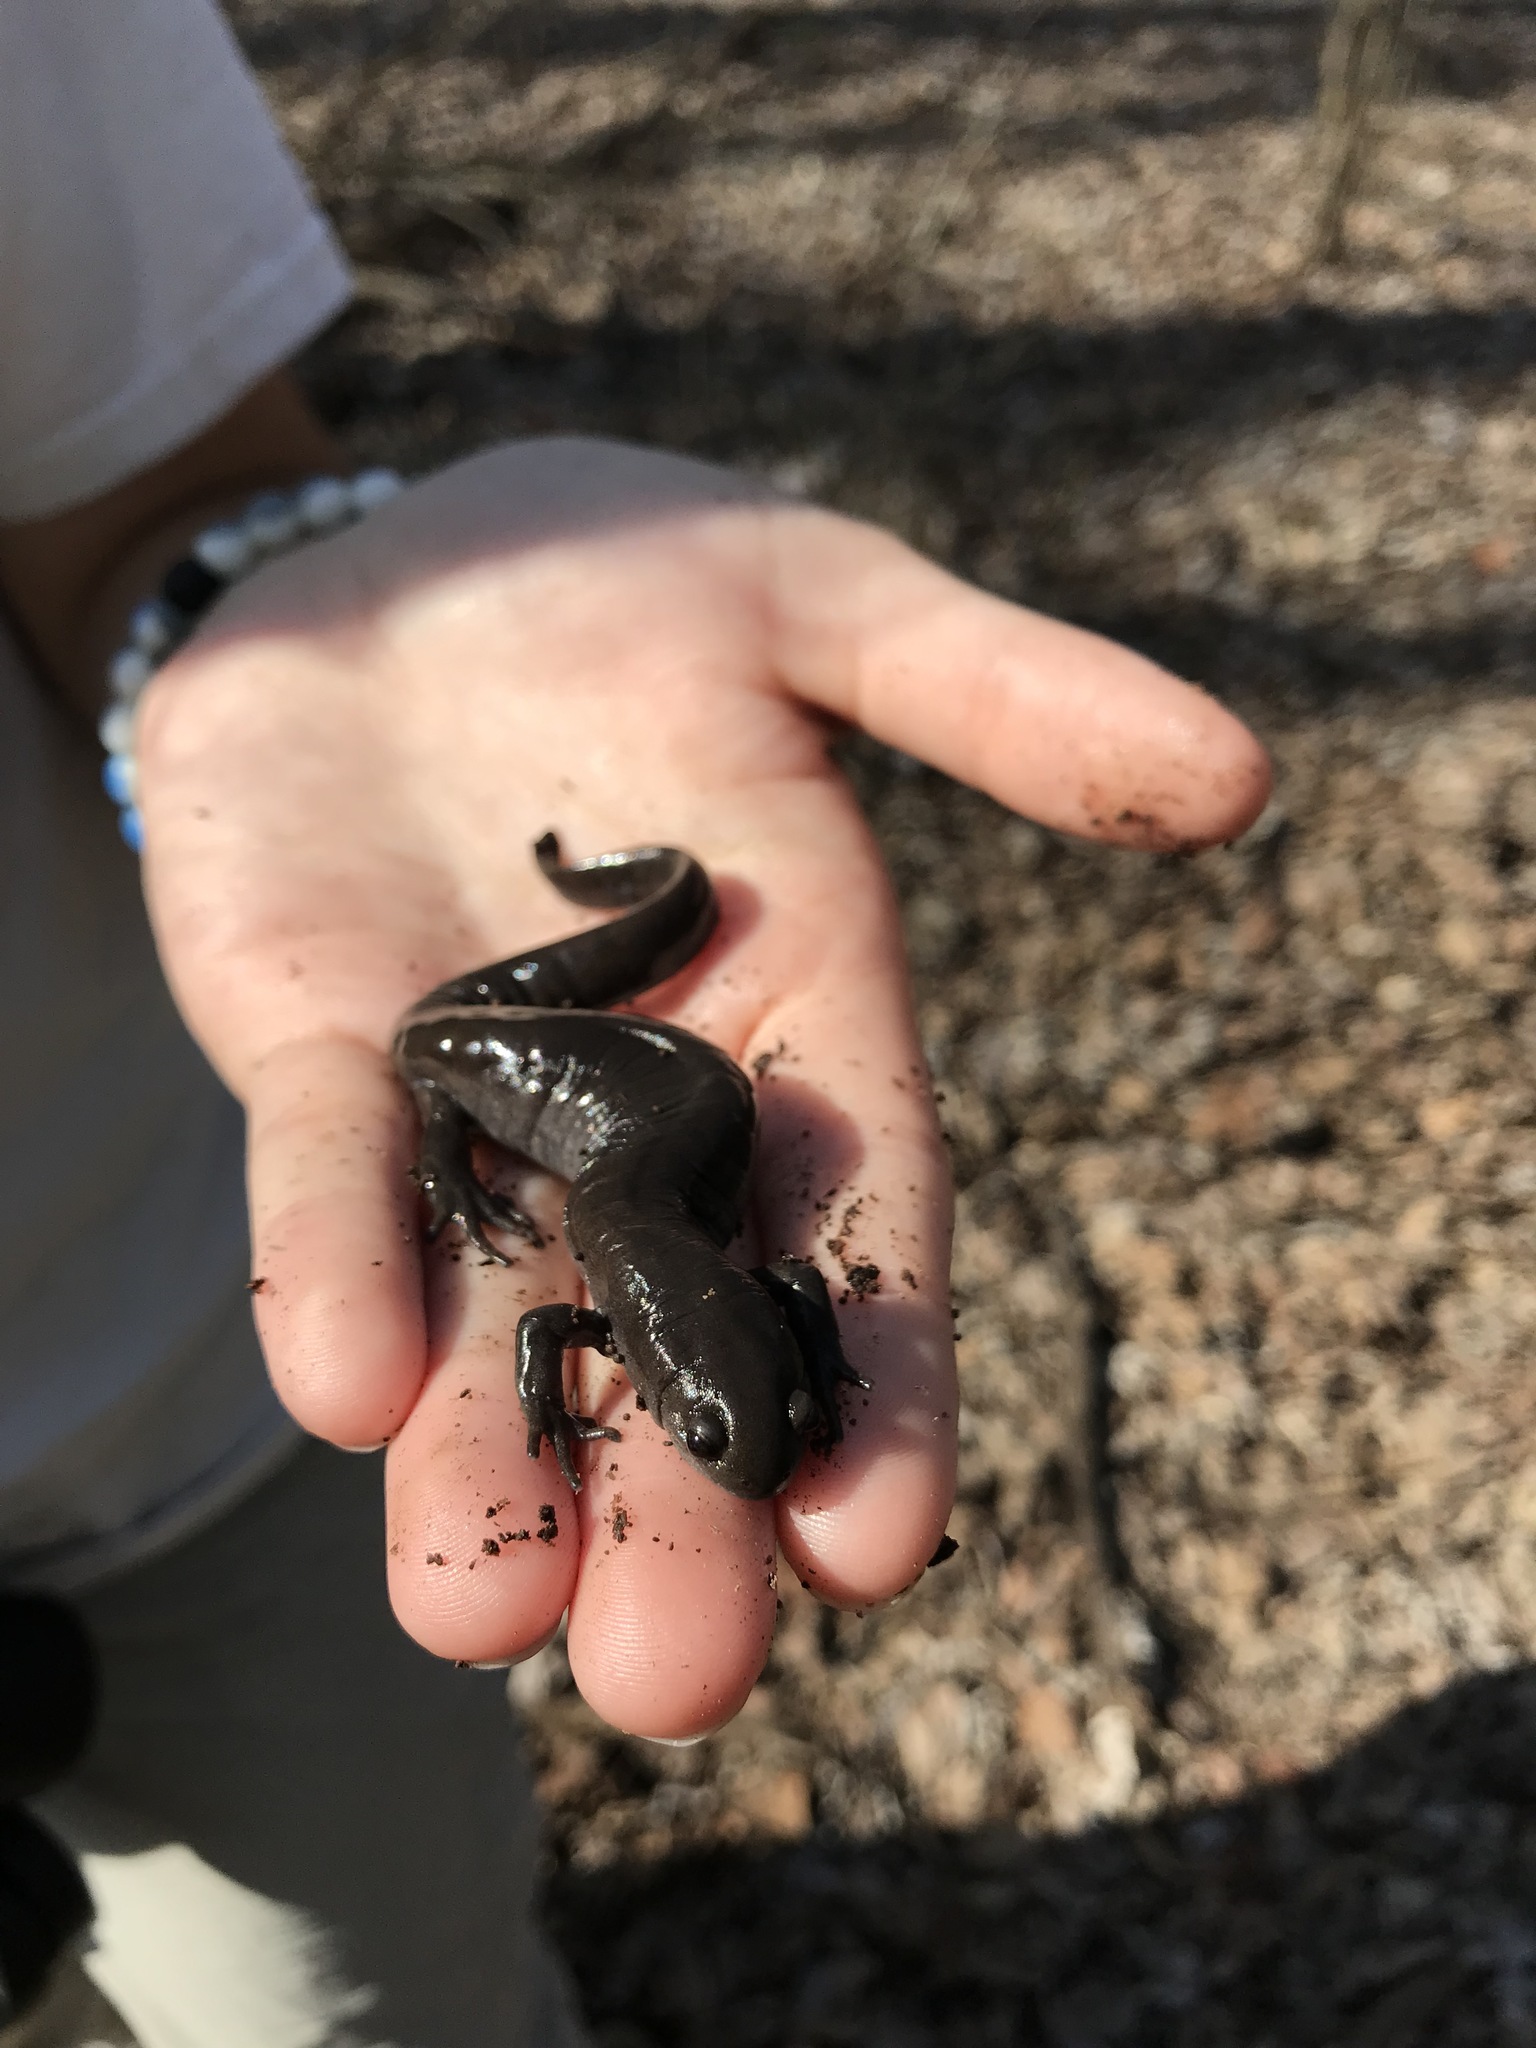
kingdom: Animalia
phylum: Chordata
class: Amphibia
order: Caudata
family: Ambystomatidae
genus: Ambystoma
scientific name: Ambystoma texanum
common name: Small-mouth salamander
